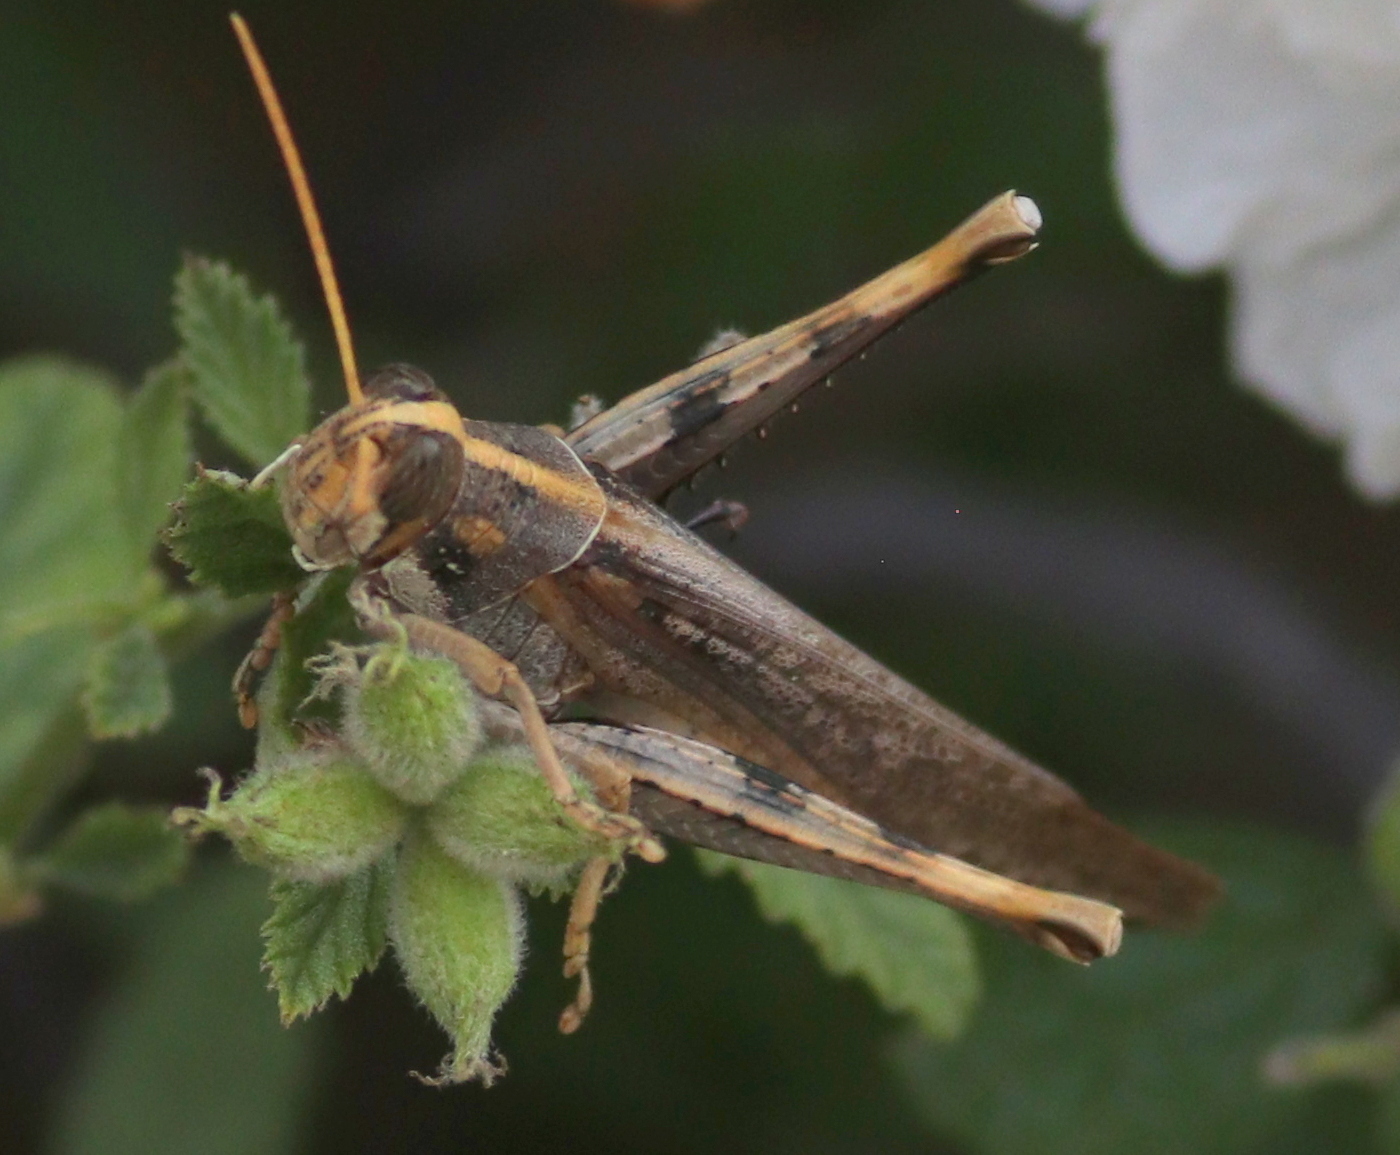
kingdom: Animalia
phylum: Arthropoda
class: Insecta
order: Orthoptera
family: Acrididae
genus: Schistocerca
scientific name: Schistocerca nitens
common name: Vagrant grasshopper
